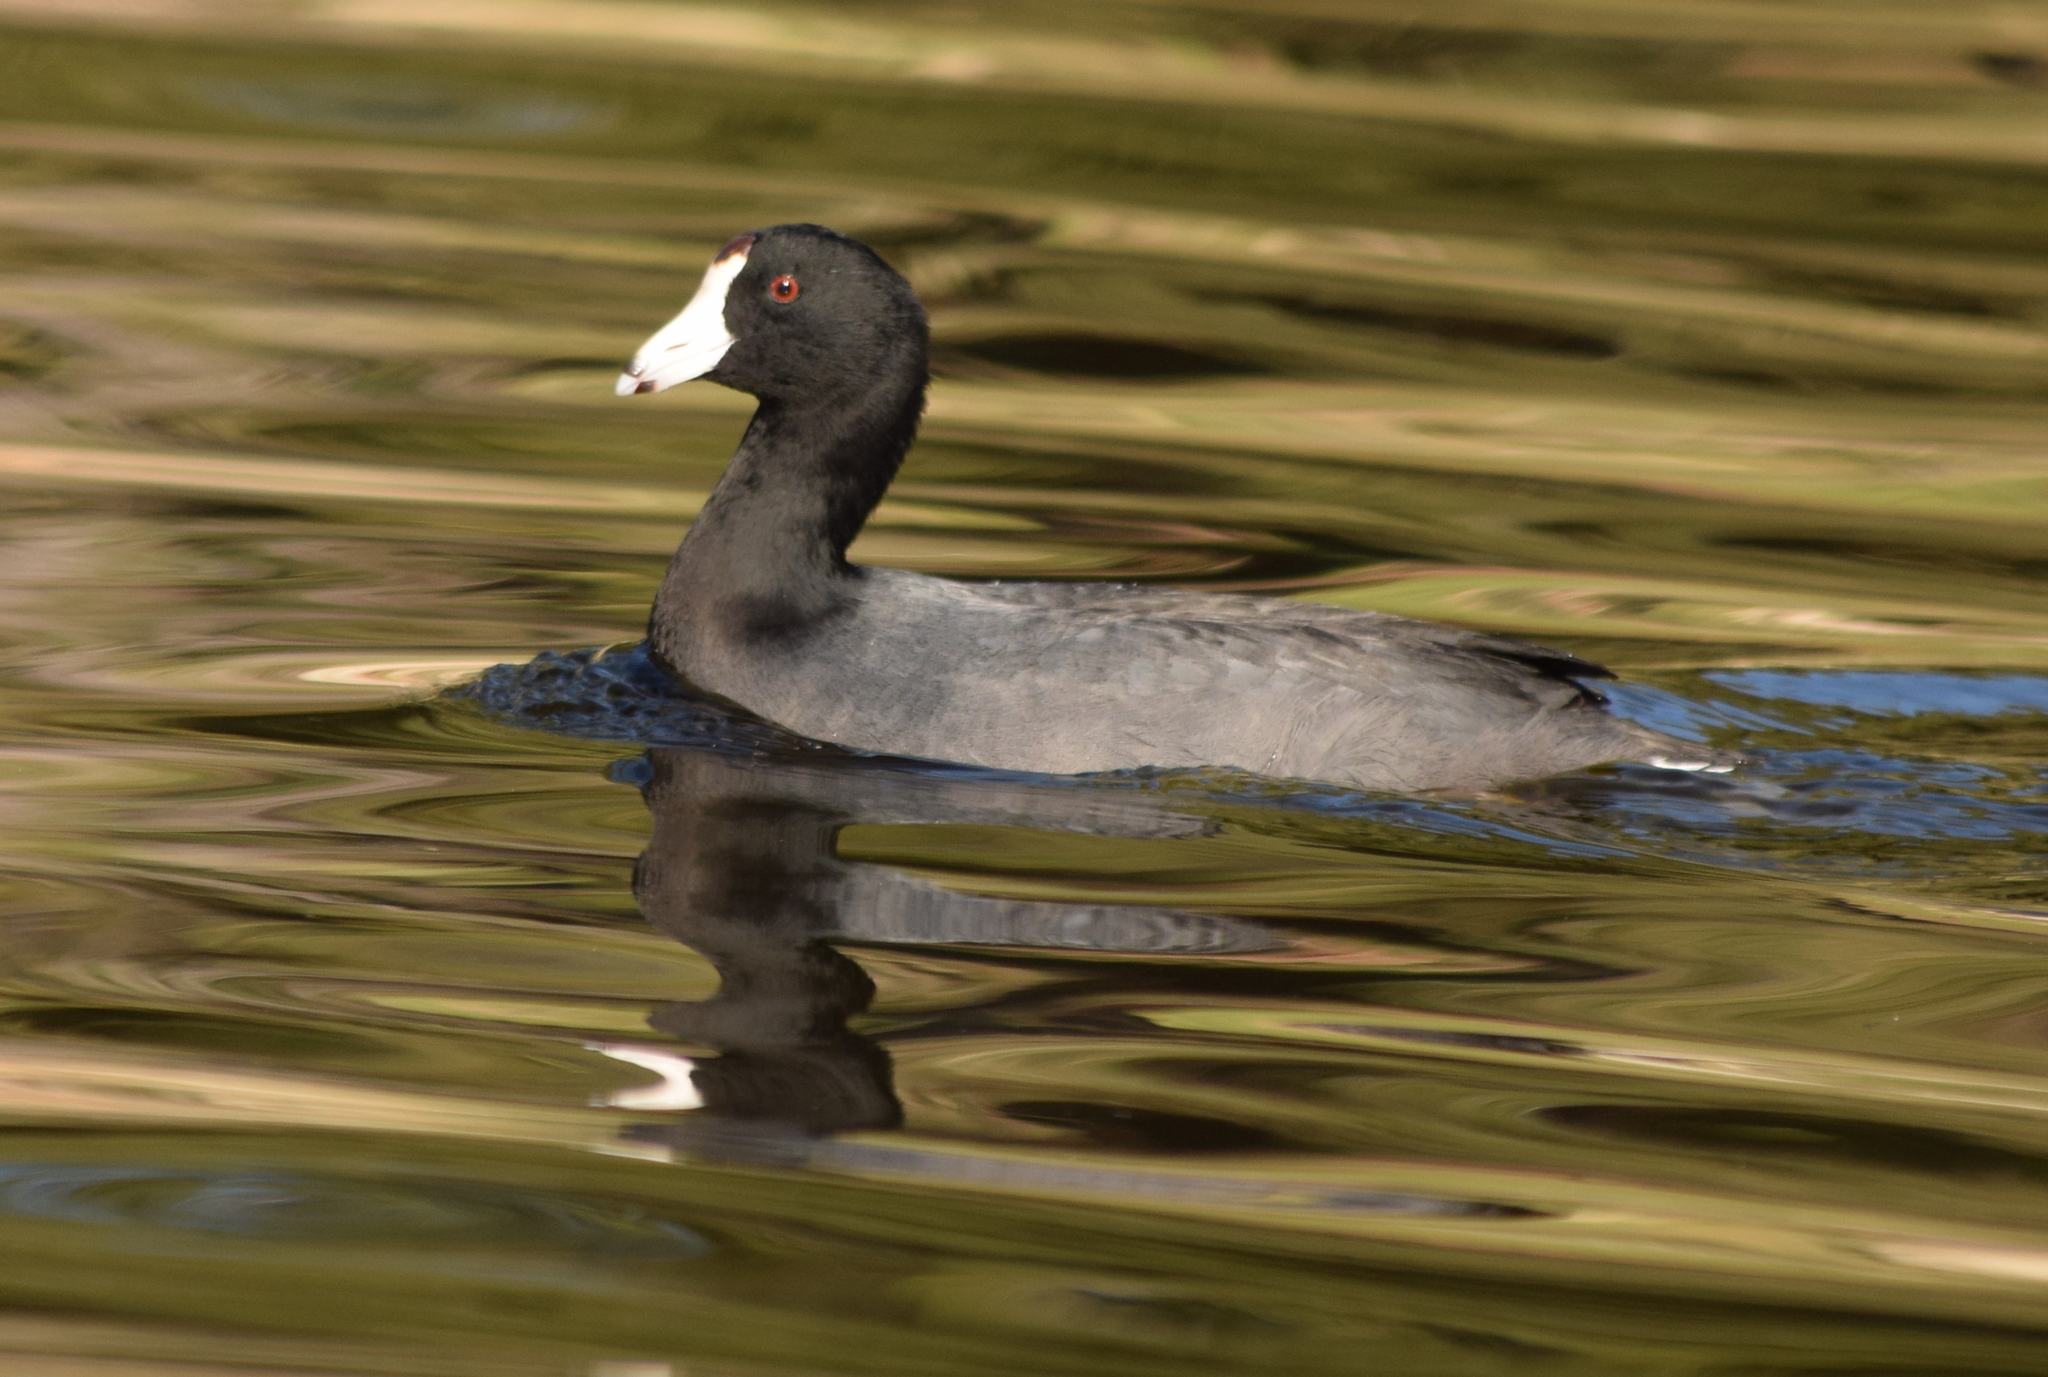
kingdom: Animalia
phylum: Chordata
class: Aves
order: Gruiformes
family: Rallidae
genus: Fulica
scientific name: Fulica americana
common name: American coot
